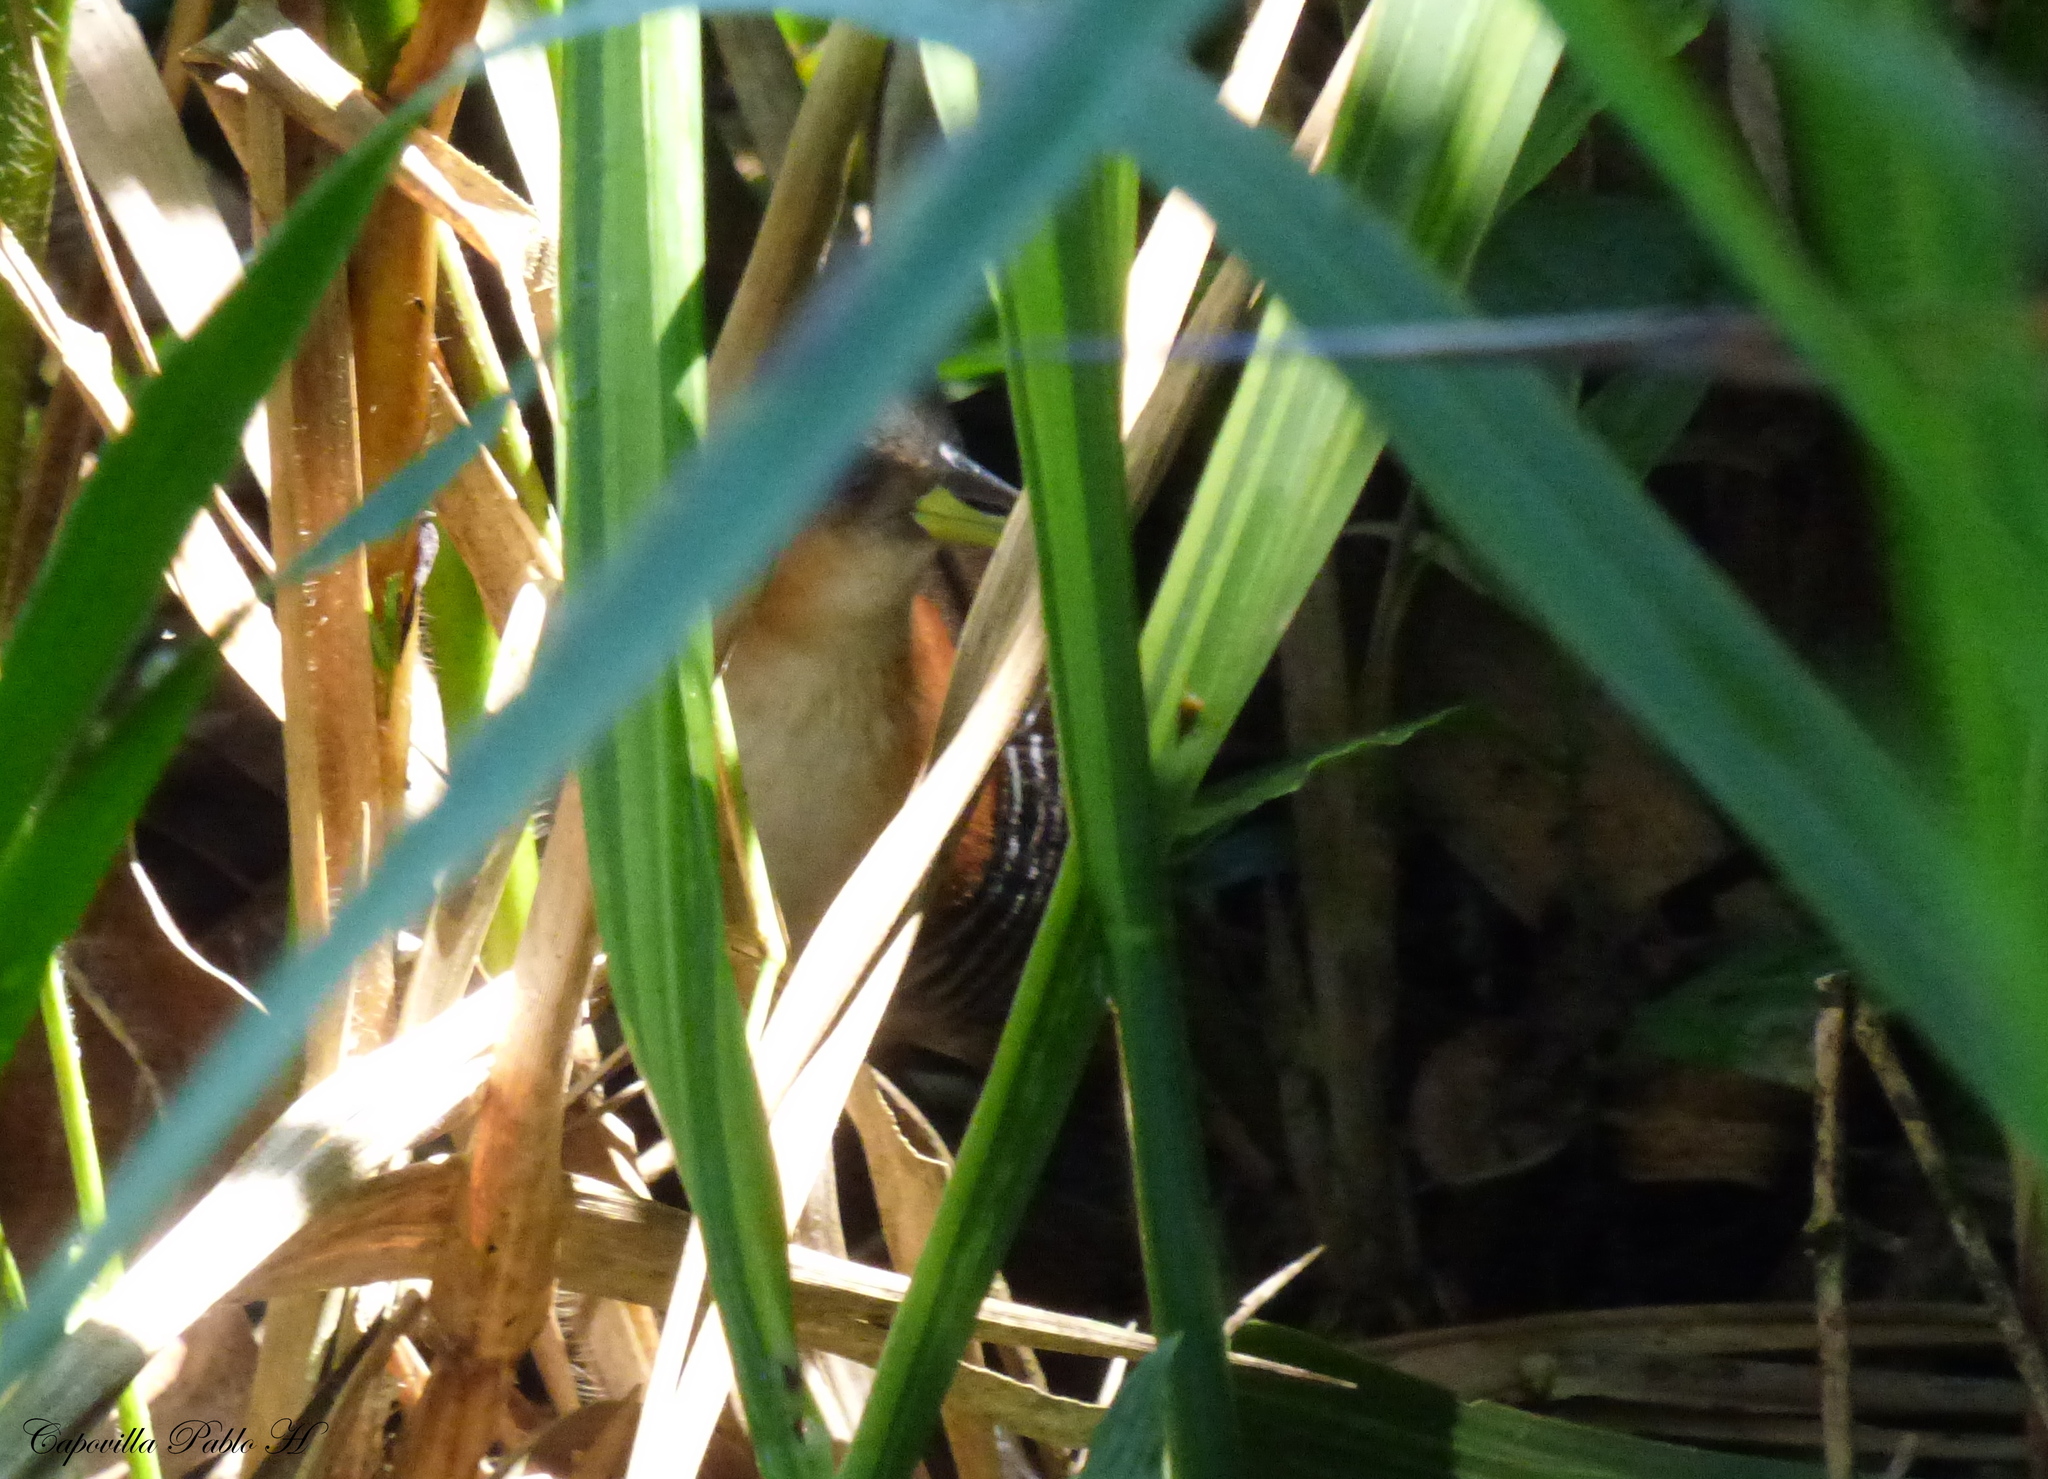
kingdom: Animalia
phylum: Chordata
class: Aves
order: Gruiformes
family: Rallidae
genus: Laterallus
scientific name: Laterallus melanophaius
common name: Rufous-sided crake
